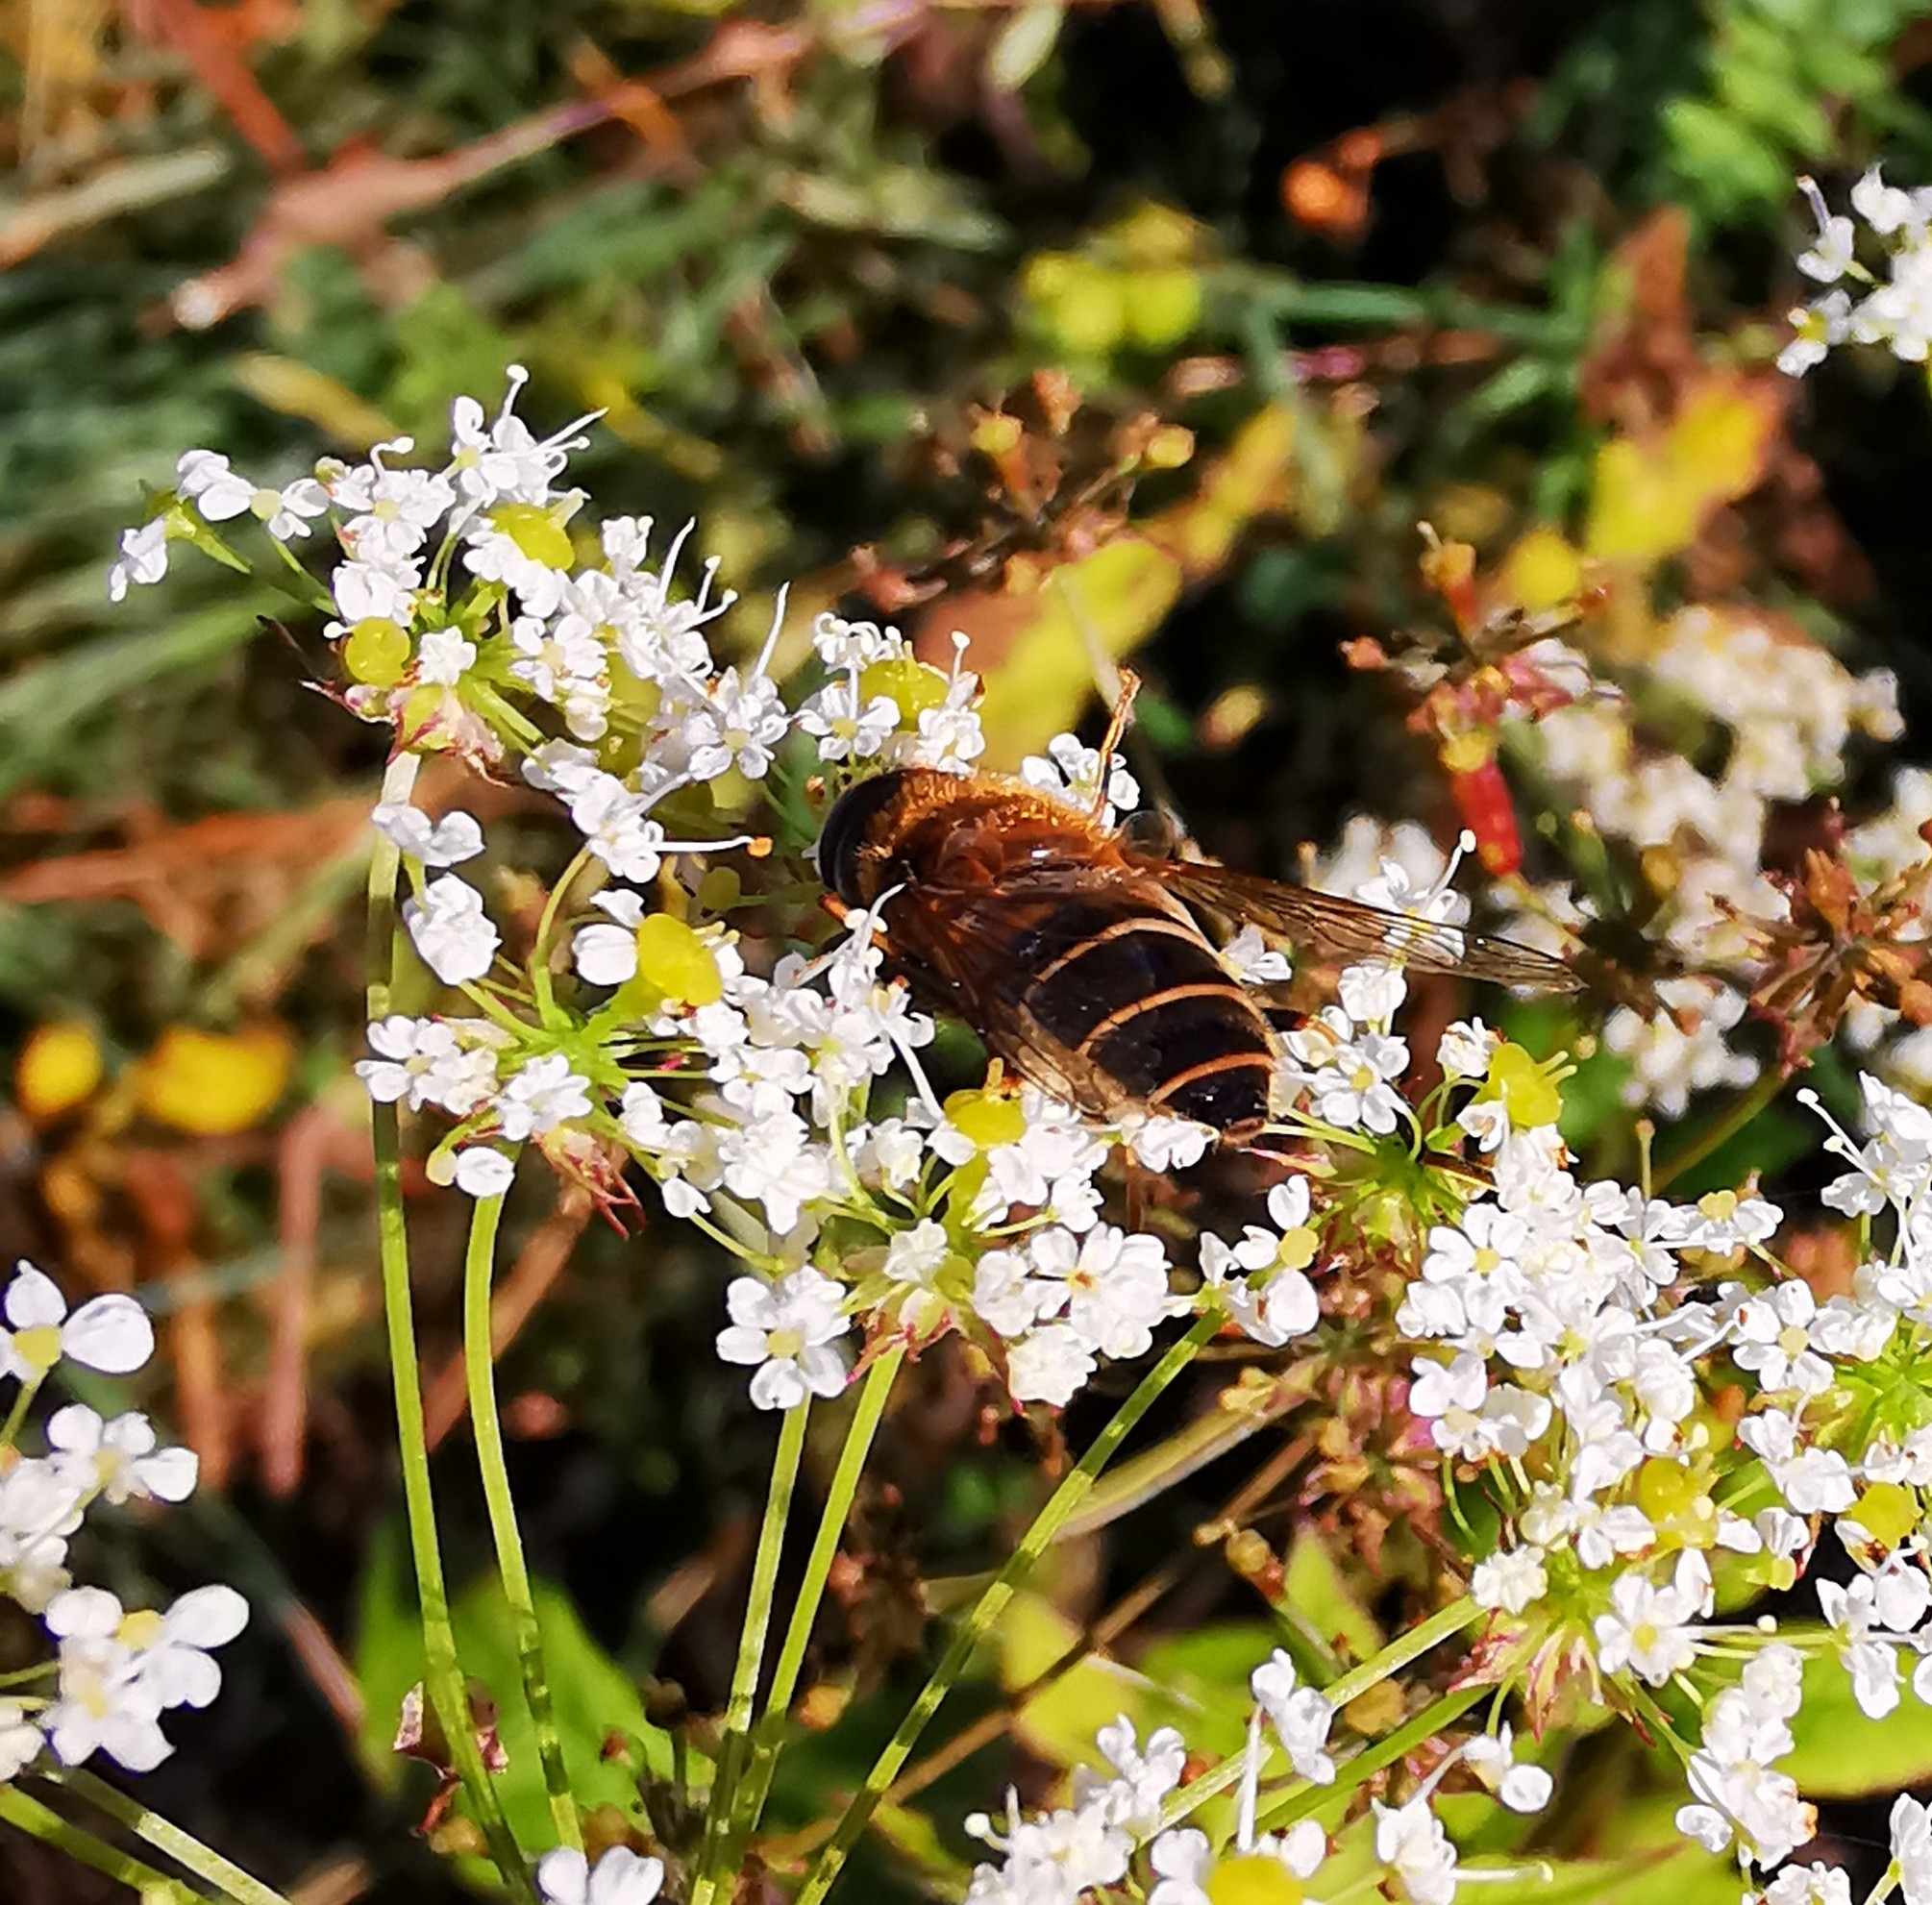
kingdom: Animalia
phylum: Arthropoda
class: Insecta
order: Diptera
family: Syrphidae
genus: Eristalis
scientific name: Eristalis pertinax
